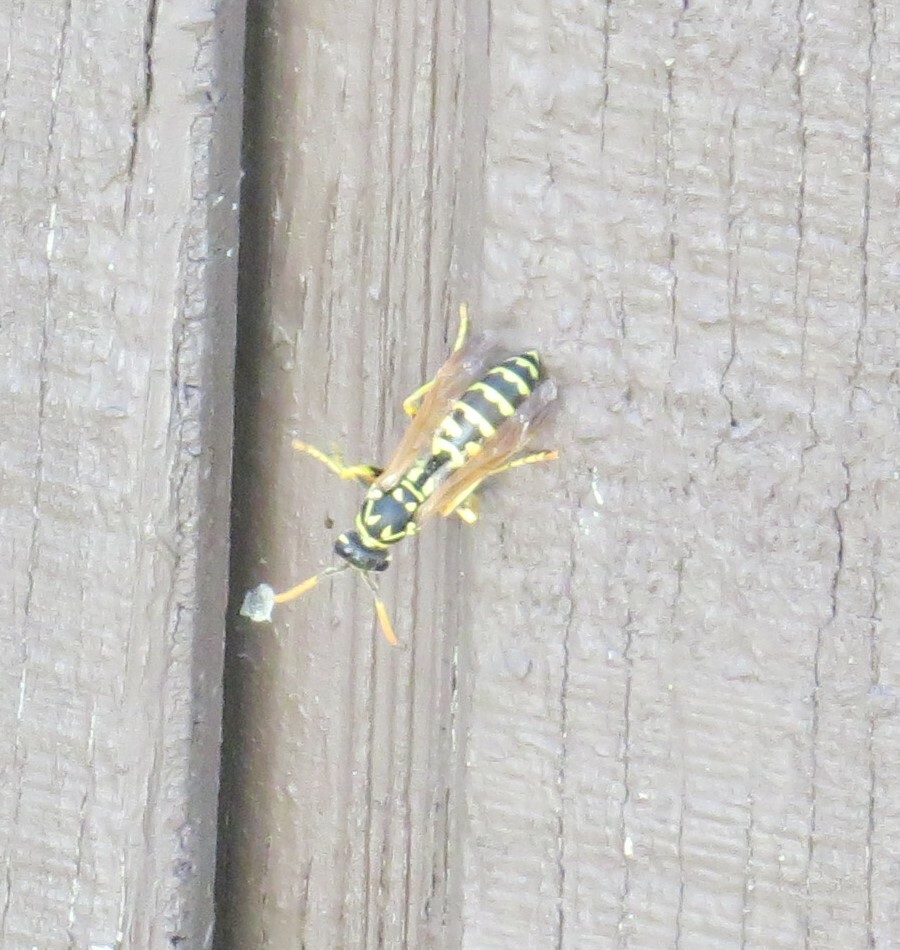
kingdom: Animalia
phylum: Arthropoda
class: Insecta
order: Hymenoptera
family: Eumenidae
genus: Polistes
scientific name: Polistes dominula
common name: Paper wasp
